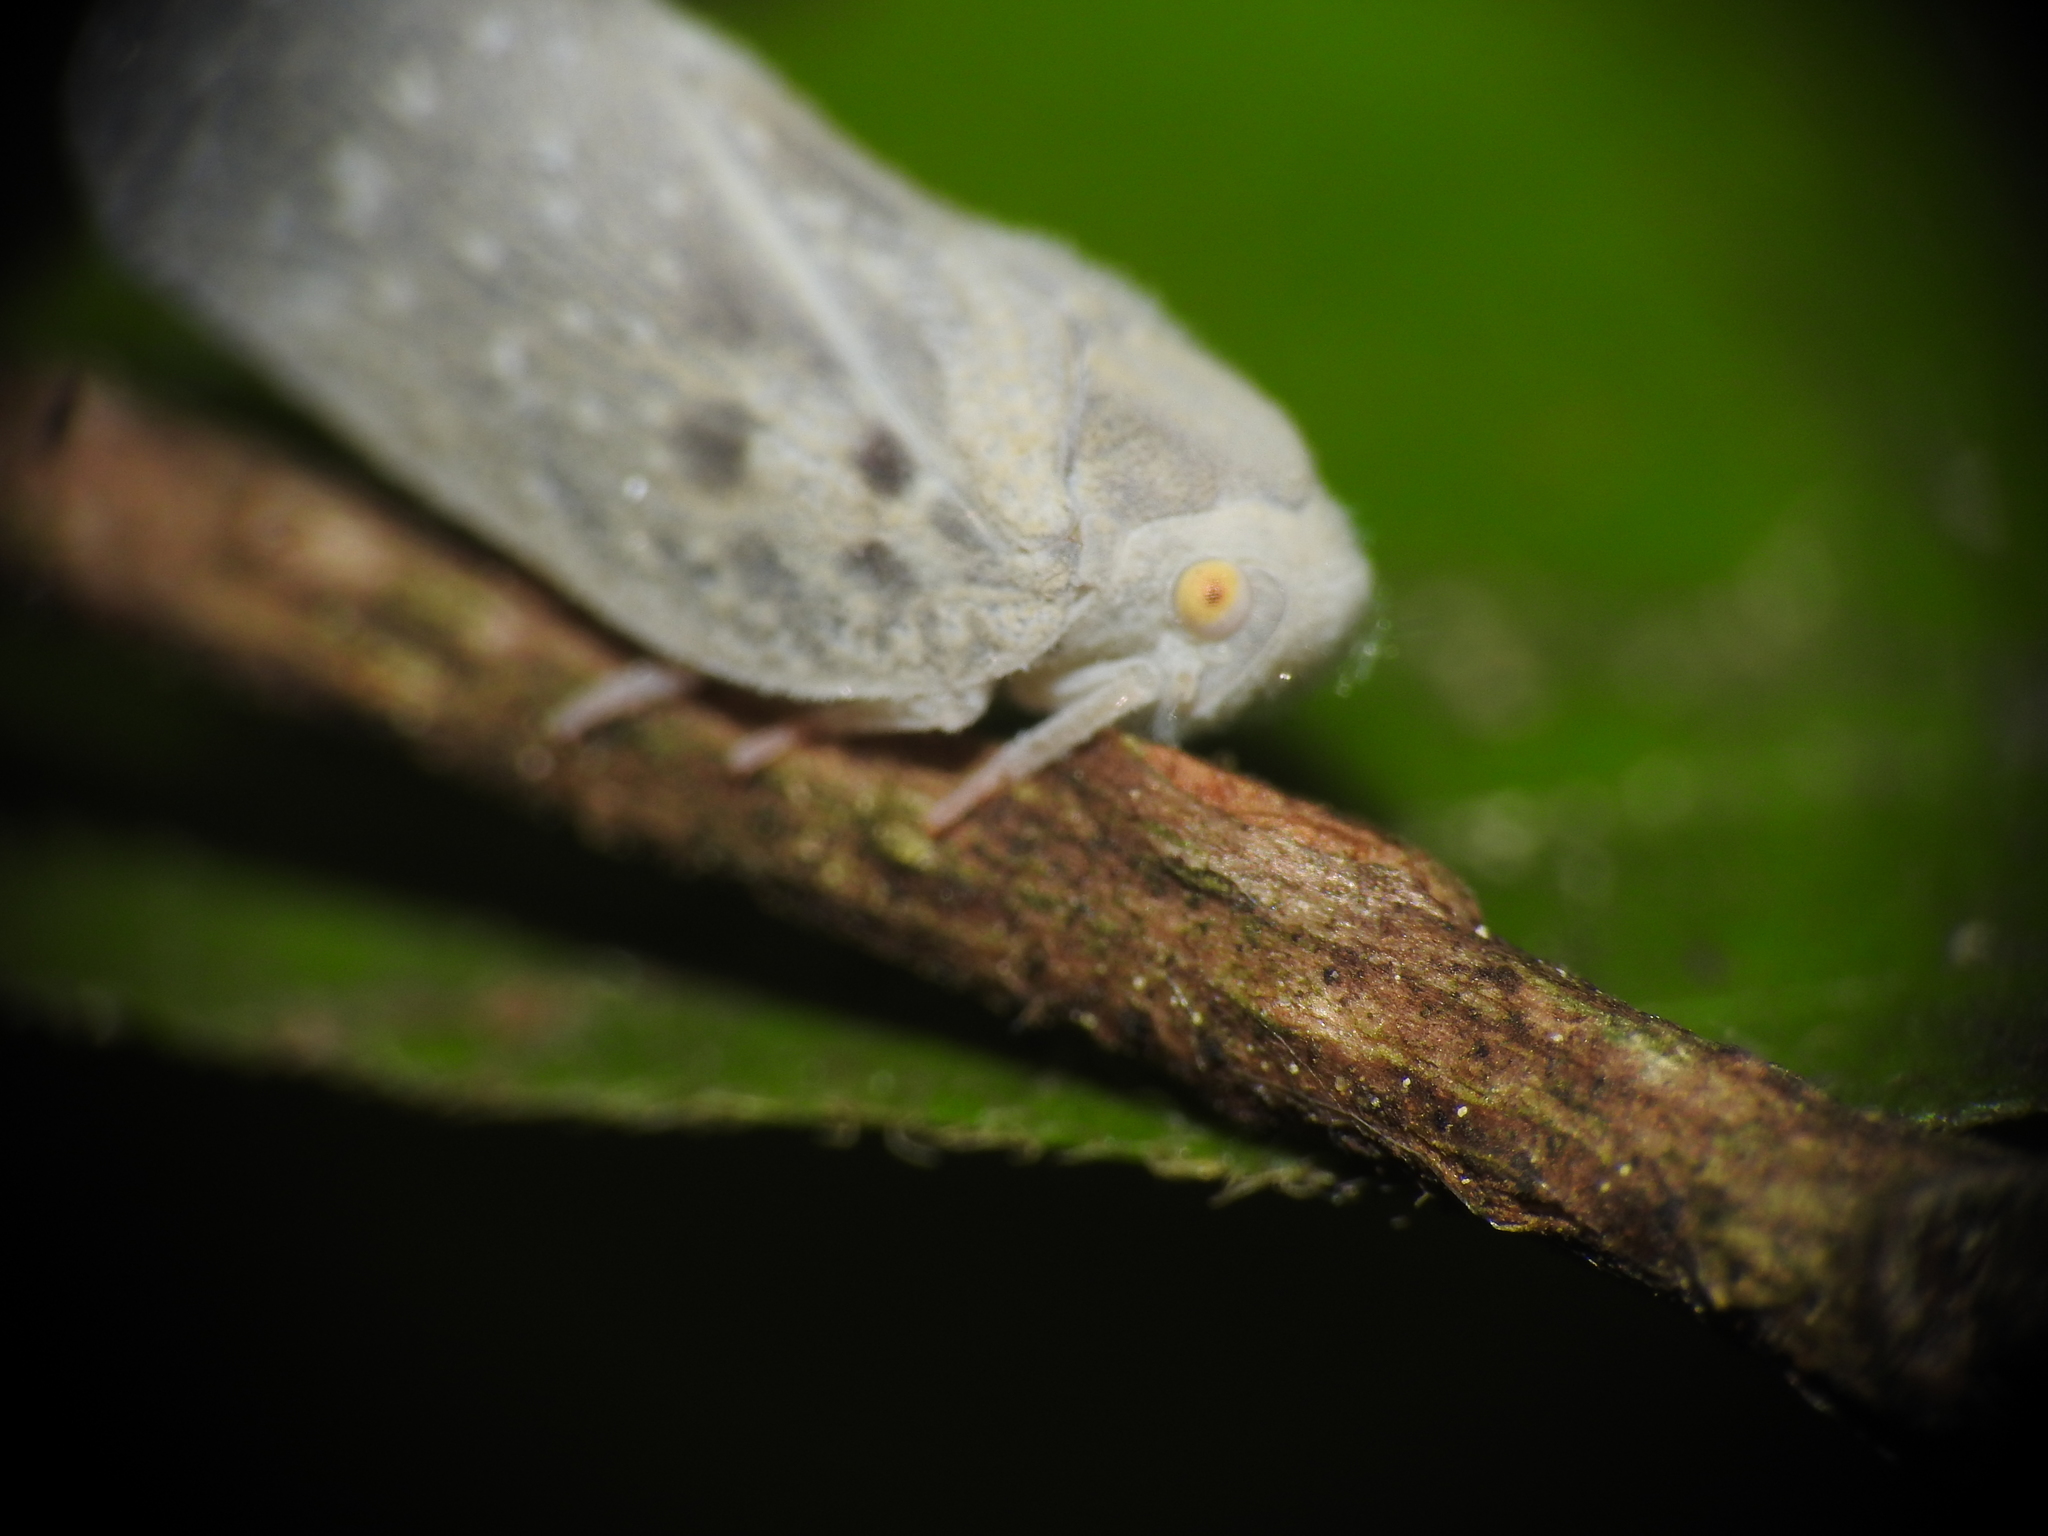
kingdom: Animalia
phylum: Arthropoda
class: Insecta
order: Hemiptera
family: Flatidae
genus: Metcalfa
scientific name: Metcalfa pruinosa
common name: Citrus flatid planthopper
